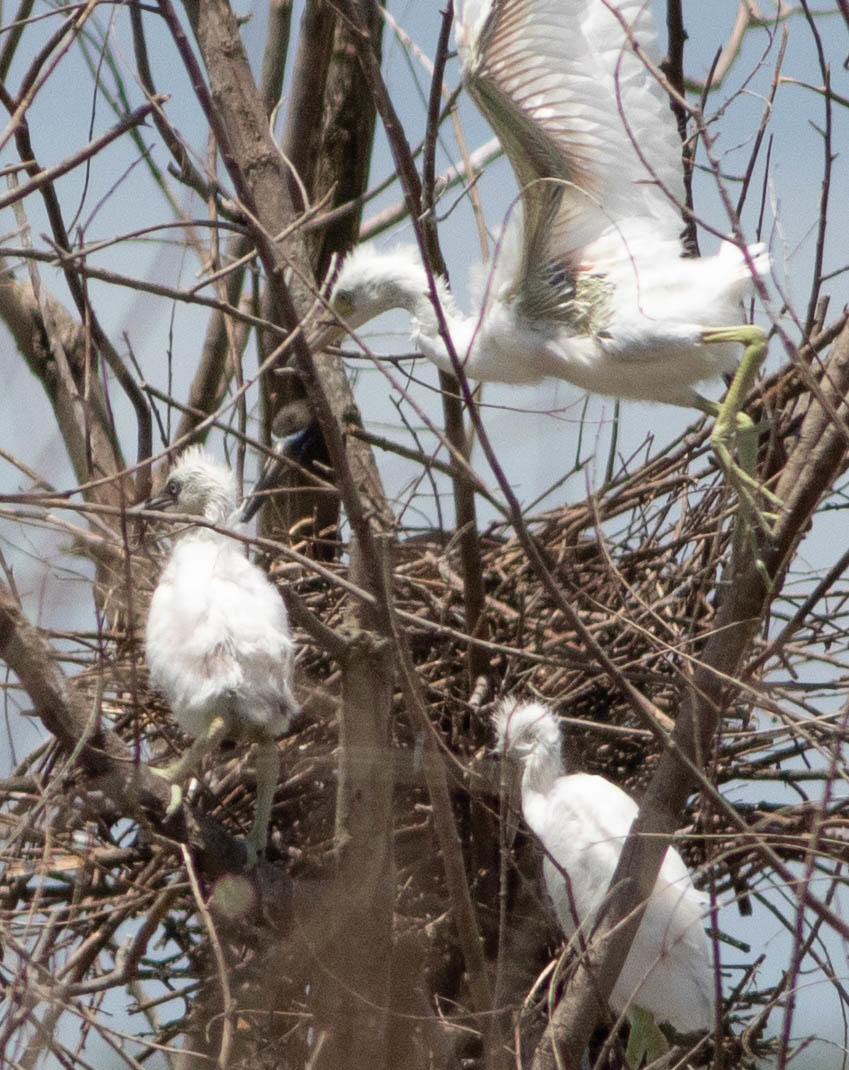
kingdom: Animalia
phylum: Chordata
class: Aves
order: Pelecaniformes
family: Threskiornithidae
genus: Plegadis
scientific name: Plegadis falcinellus
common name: Glossy ibis
